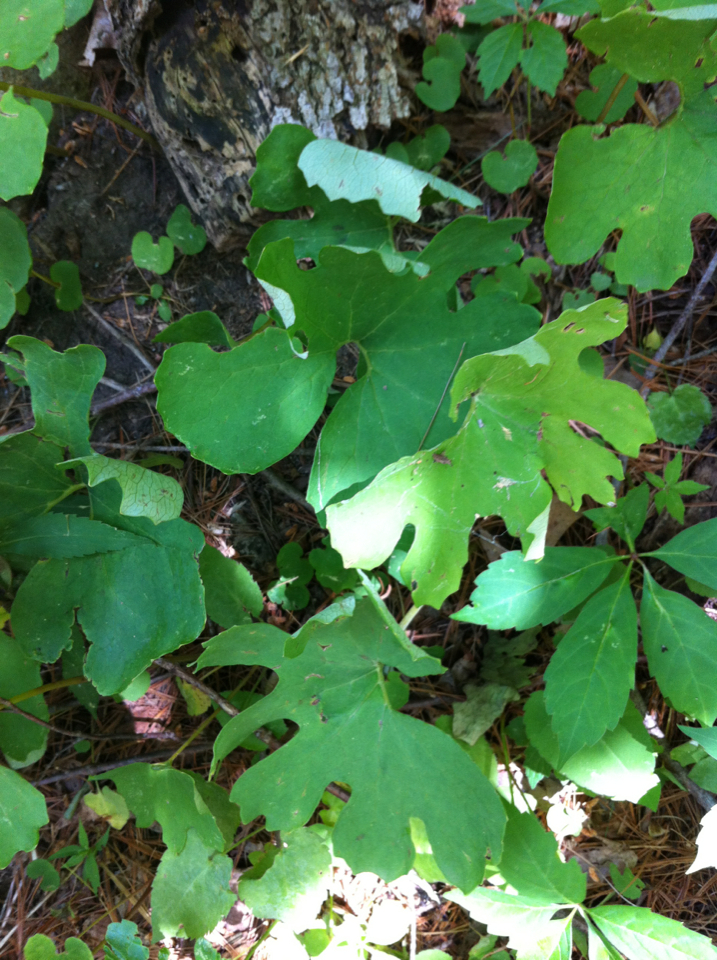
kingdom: Plantae
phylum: Tracheophyta
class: Magnoliopsida
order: Ranunculales
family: Papaveraceae
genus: Sanguinaria
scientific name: Sanguinaria canadensis
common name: Bloodroot
